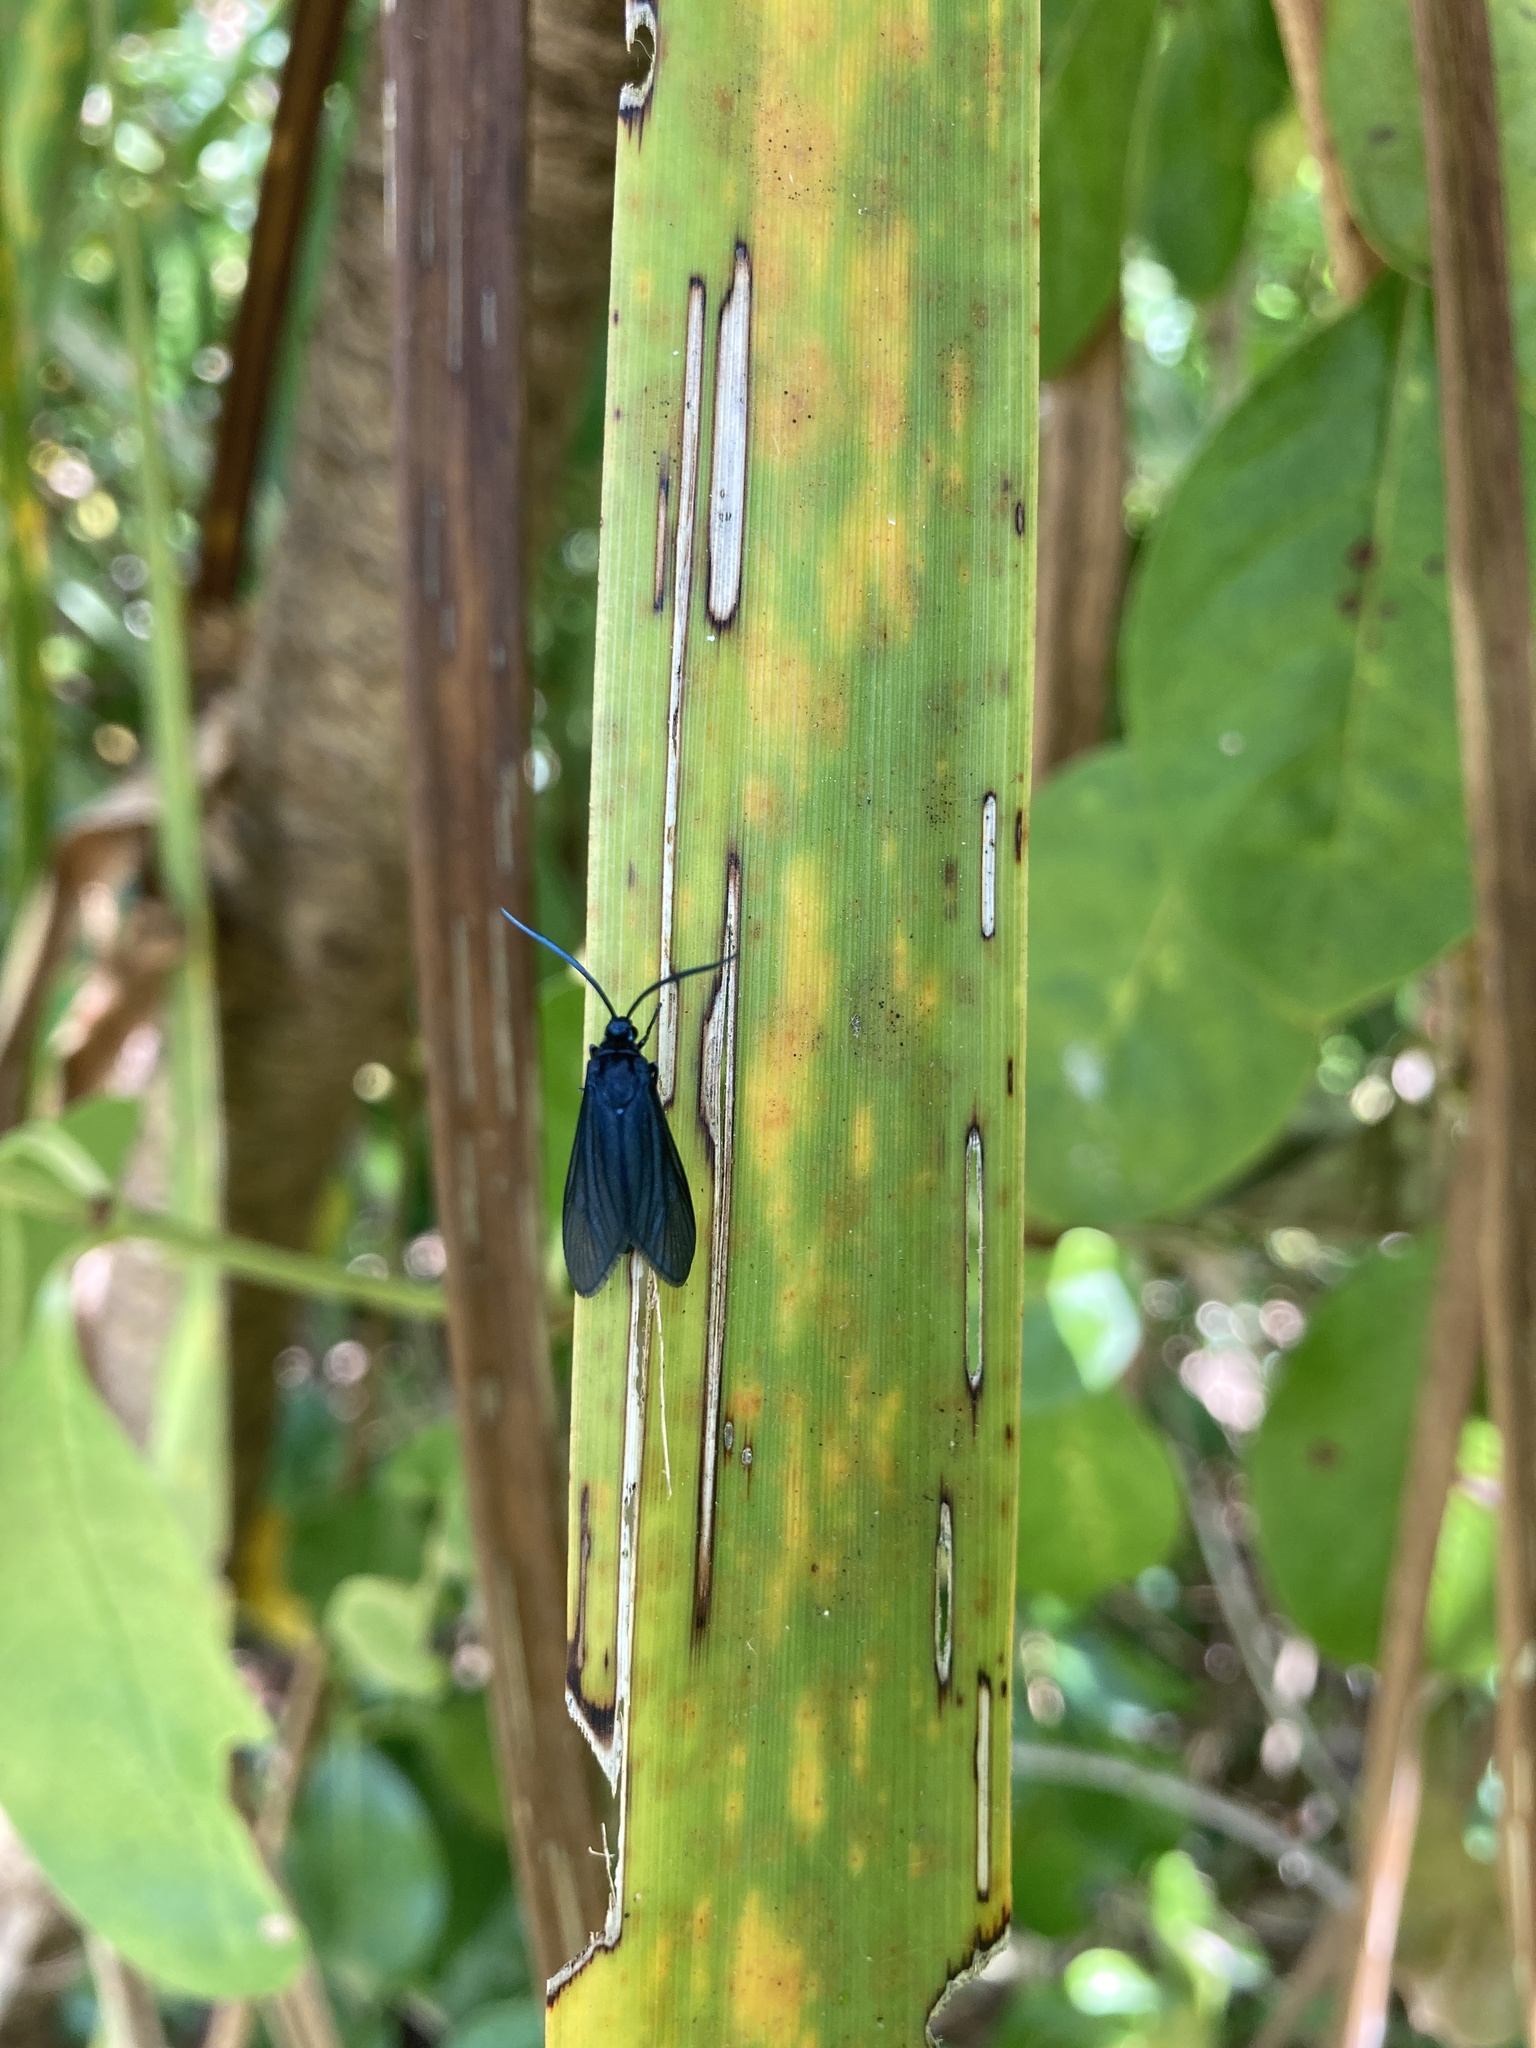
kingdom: Animalia
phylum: Arthropoda
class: Insecta
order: Lepidoptera
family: Zygaenidae
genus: Artona
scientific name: Artona martini
